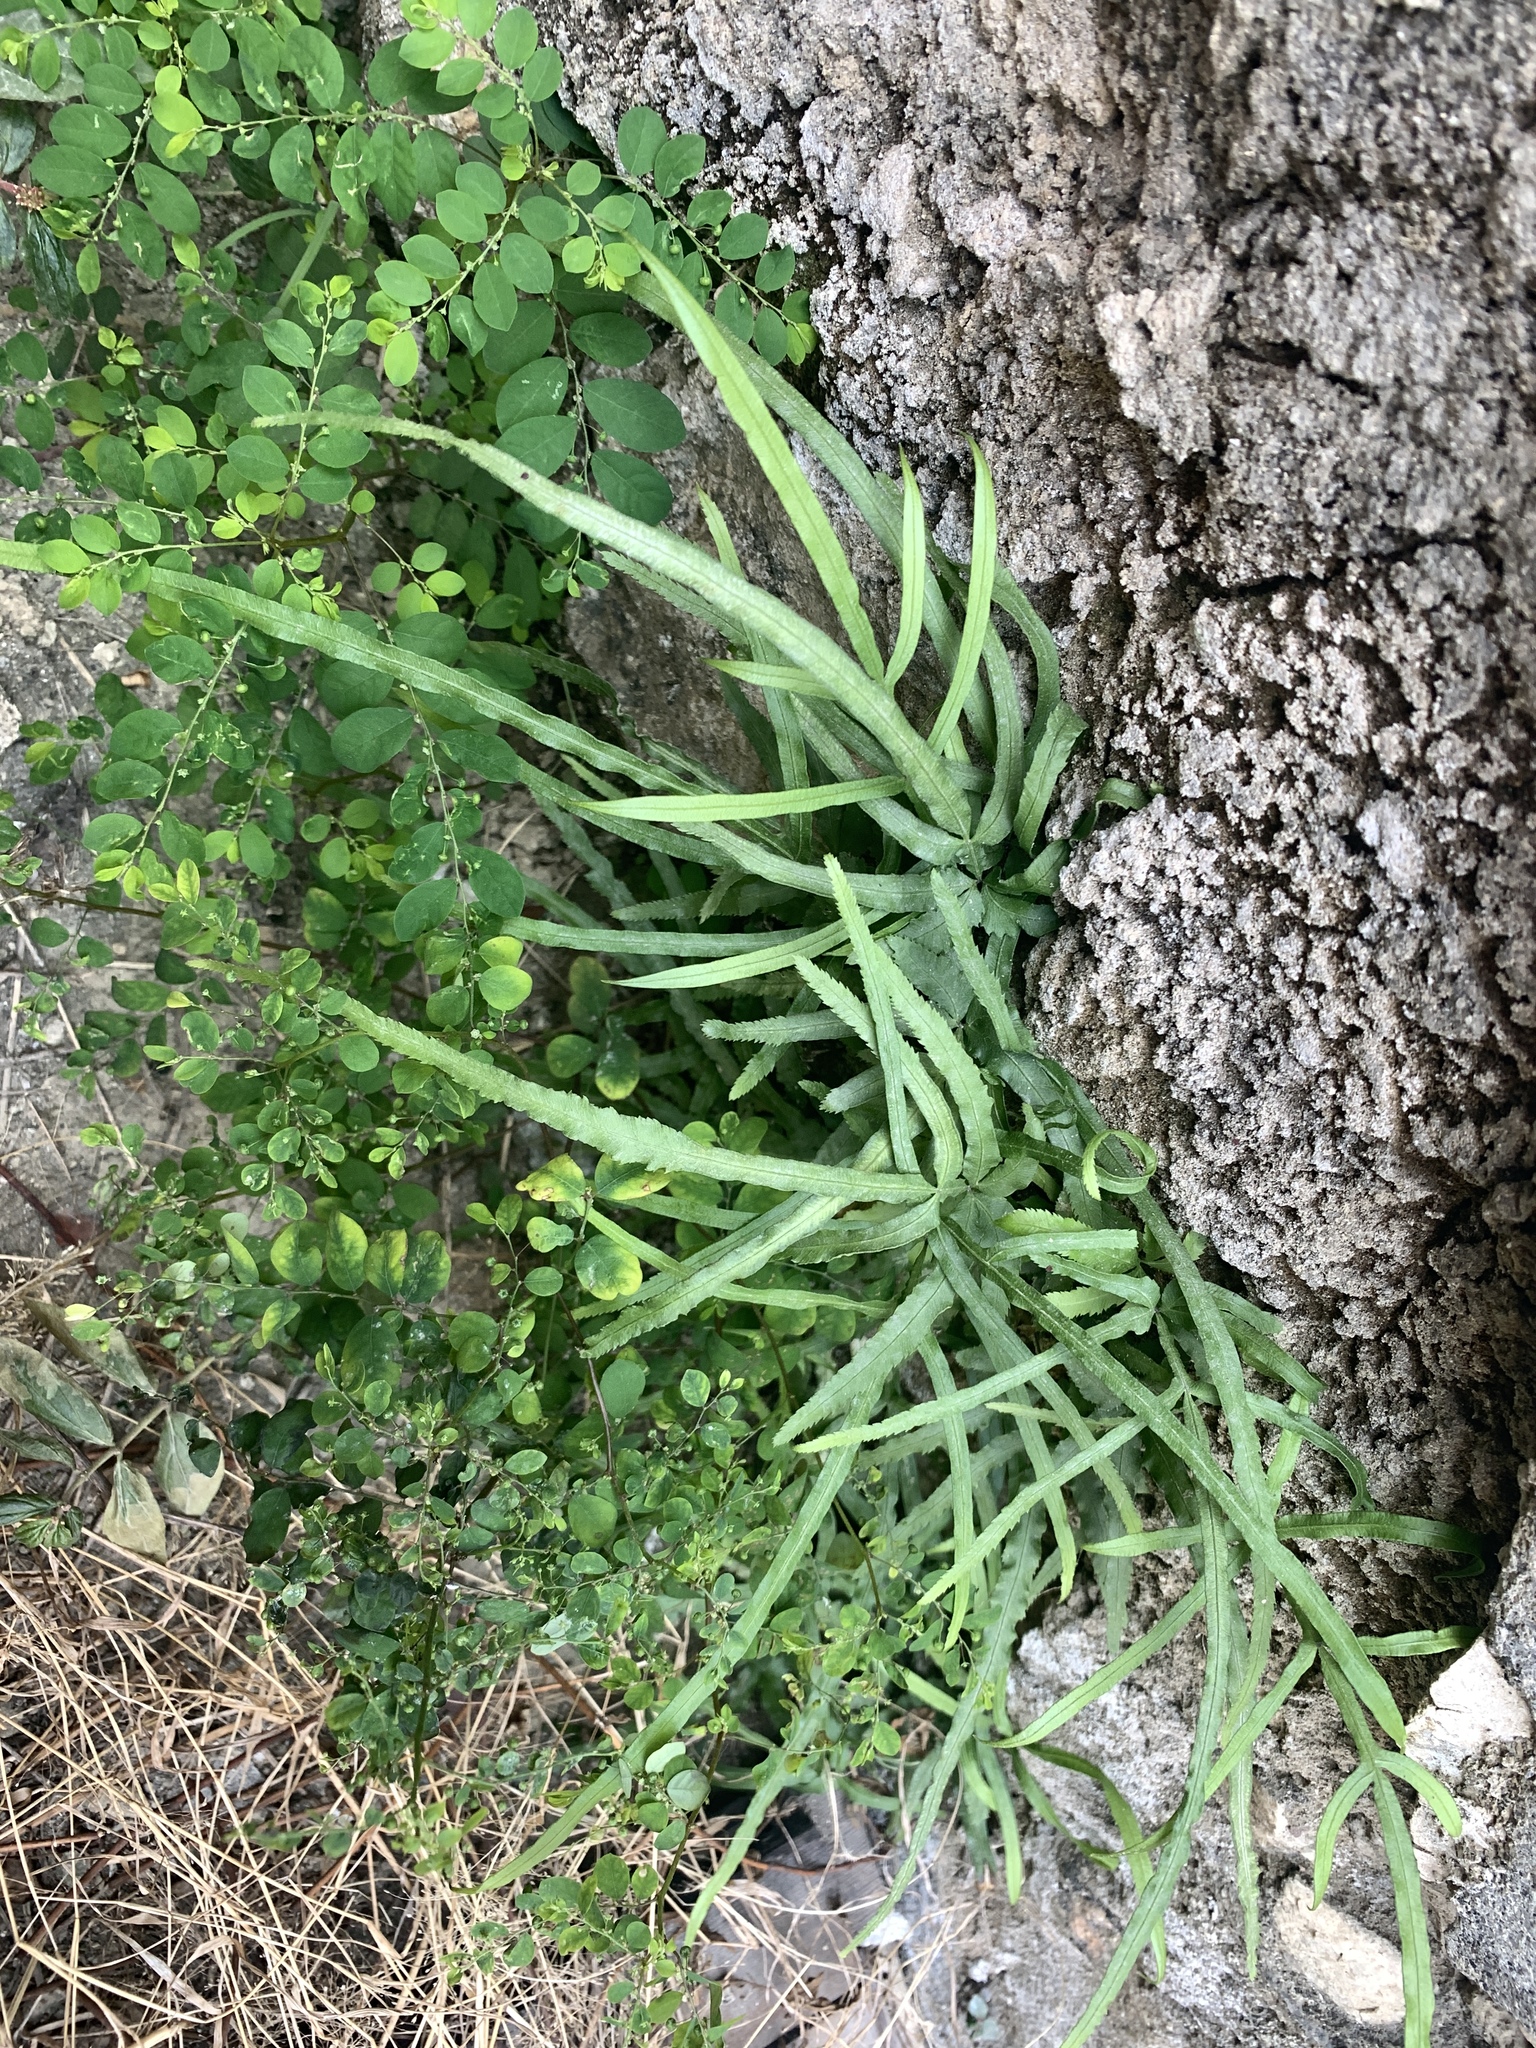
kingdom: Plantae
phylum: Tracheophyta
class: Polypodiopsida
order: Polypodiales
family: Pteridaceae
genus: Pteris
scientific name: Pteris multifida
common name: Spider brake
